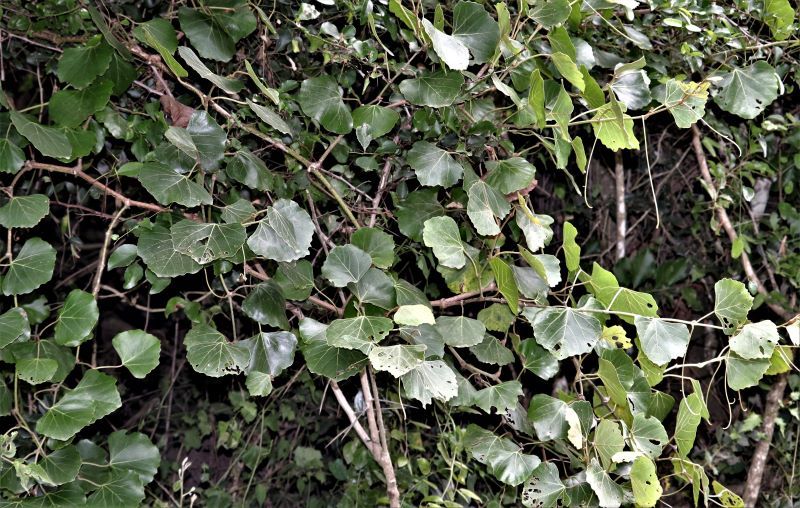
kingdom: Plantae
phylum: Tracheophyta
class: Magnoliopsida
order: Vitales
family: Vitaceae
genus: Rhoicissus
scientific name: Rhoicissus tomentosa
